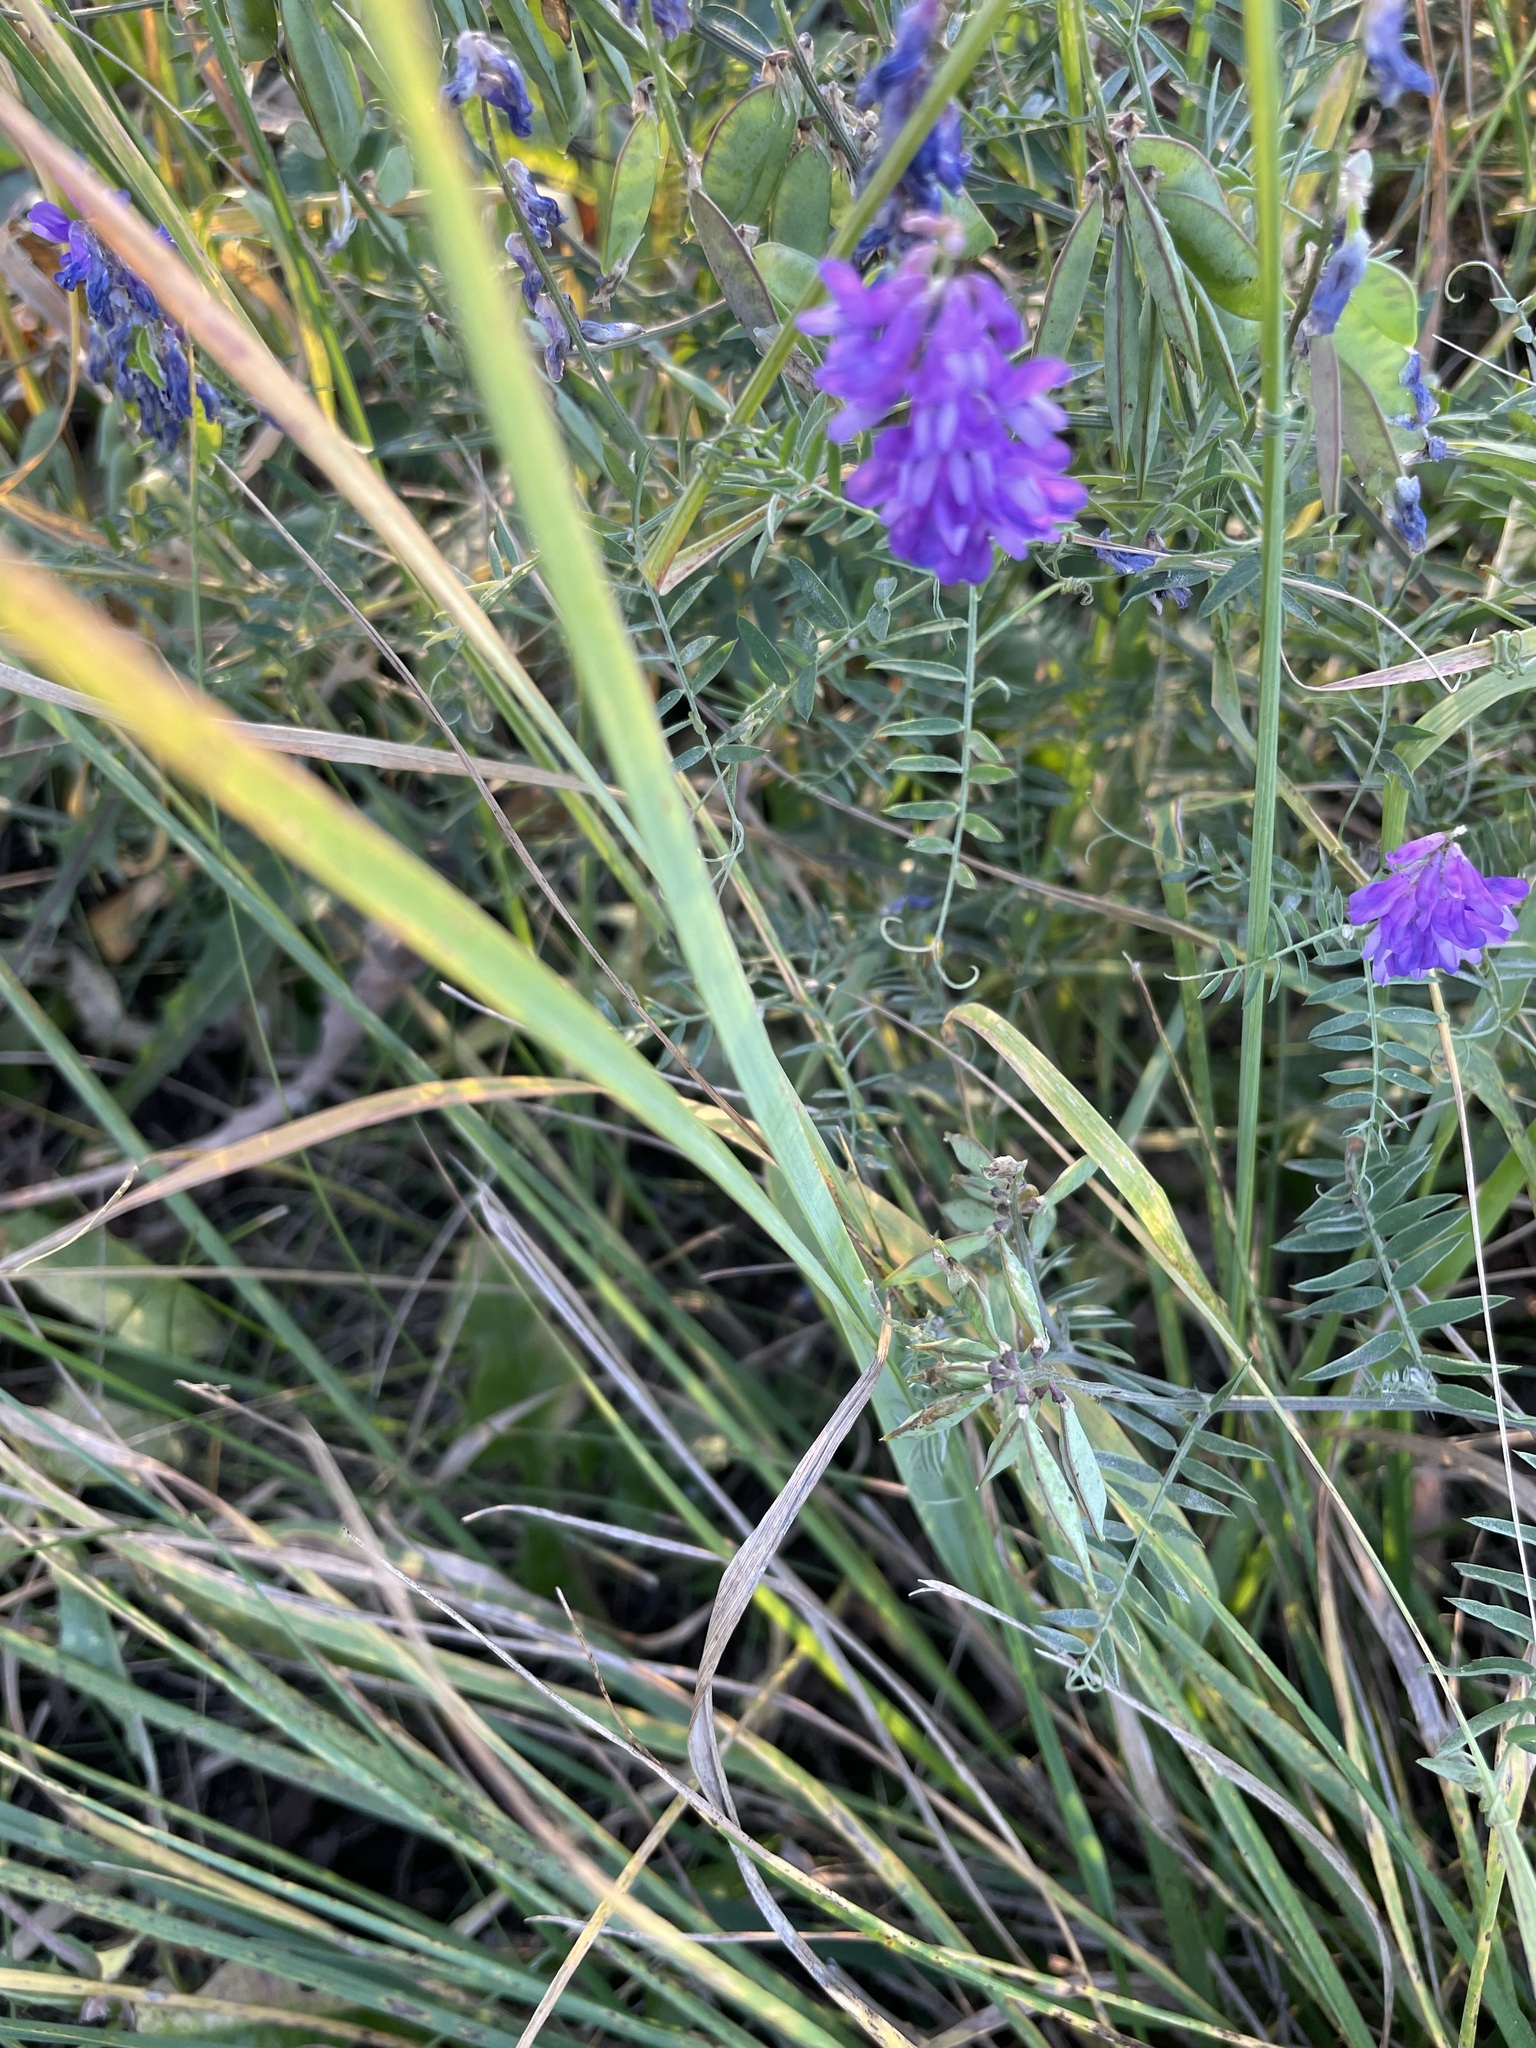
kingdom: Plantae
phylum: Tracheophyta
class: Magnoliopsida
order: Fabales
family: Fabaceae
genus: Vicia
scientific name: Vicia cracca
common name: Bird vetch
